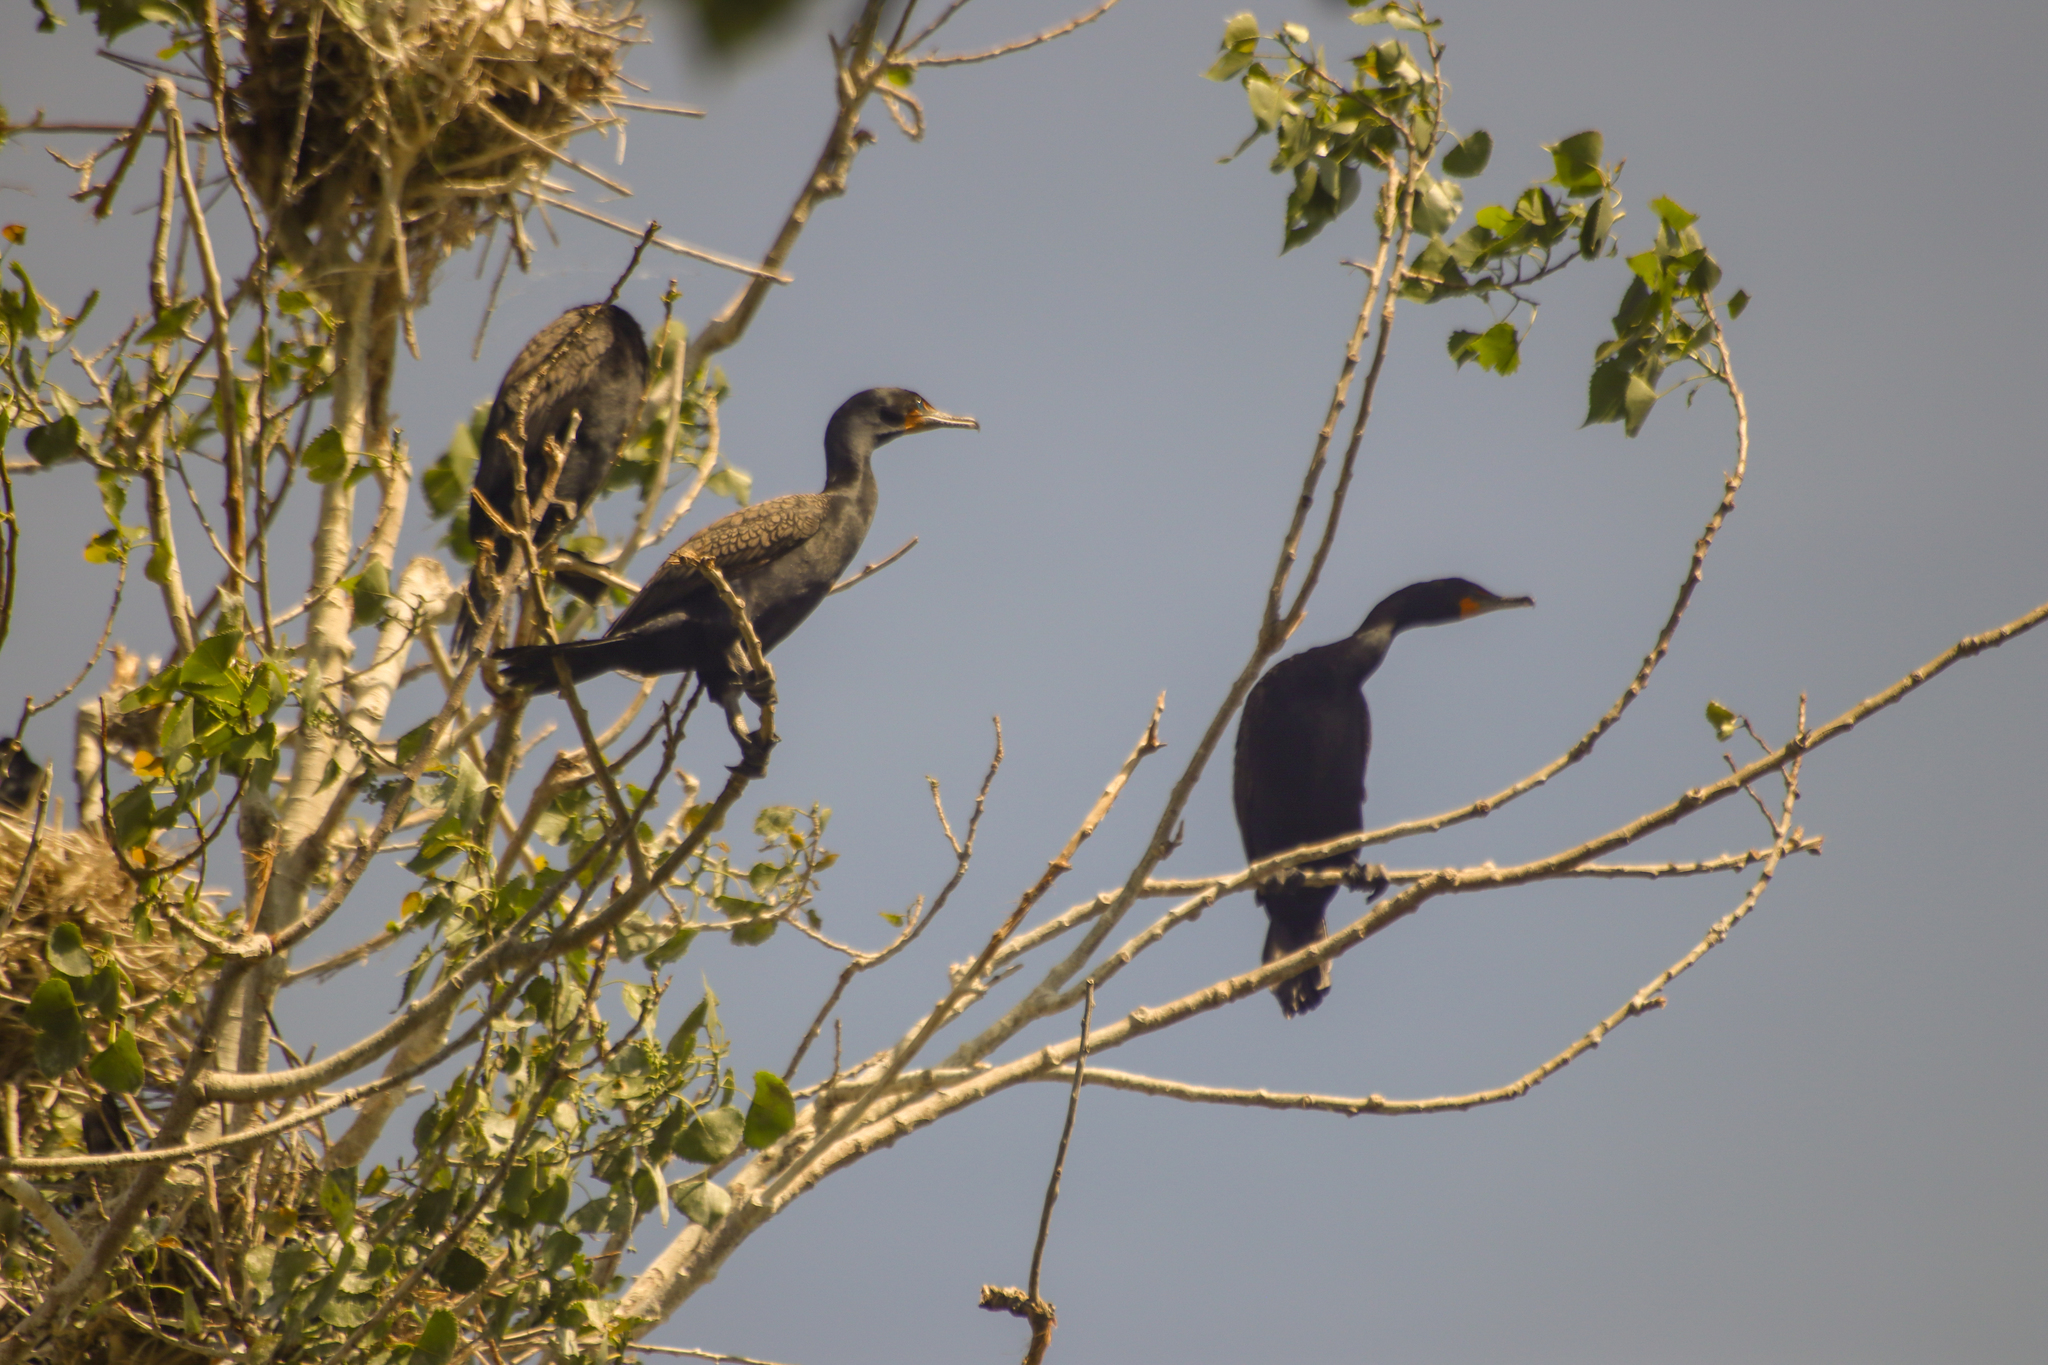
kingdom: Animalia
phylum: Chordata
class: Aves
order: Suliformes
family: Phalacrocoracidae
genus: Phalacrocorax
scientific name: Phalacrocorax auritus
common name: Double-crested cormorant
